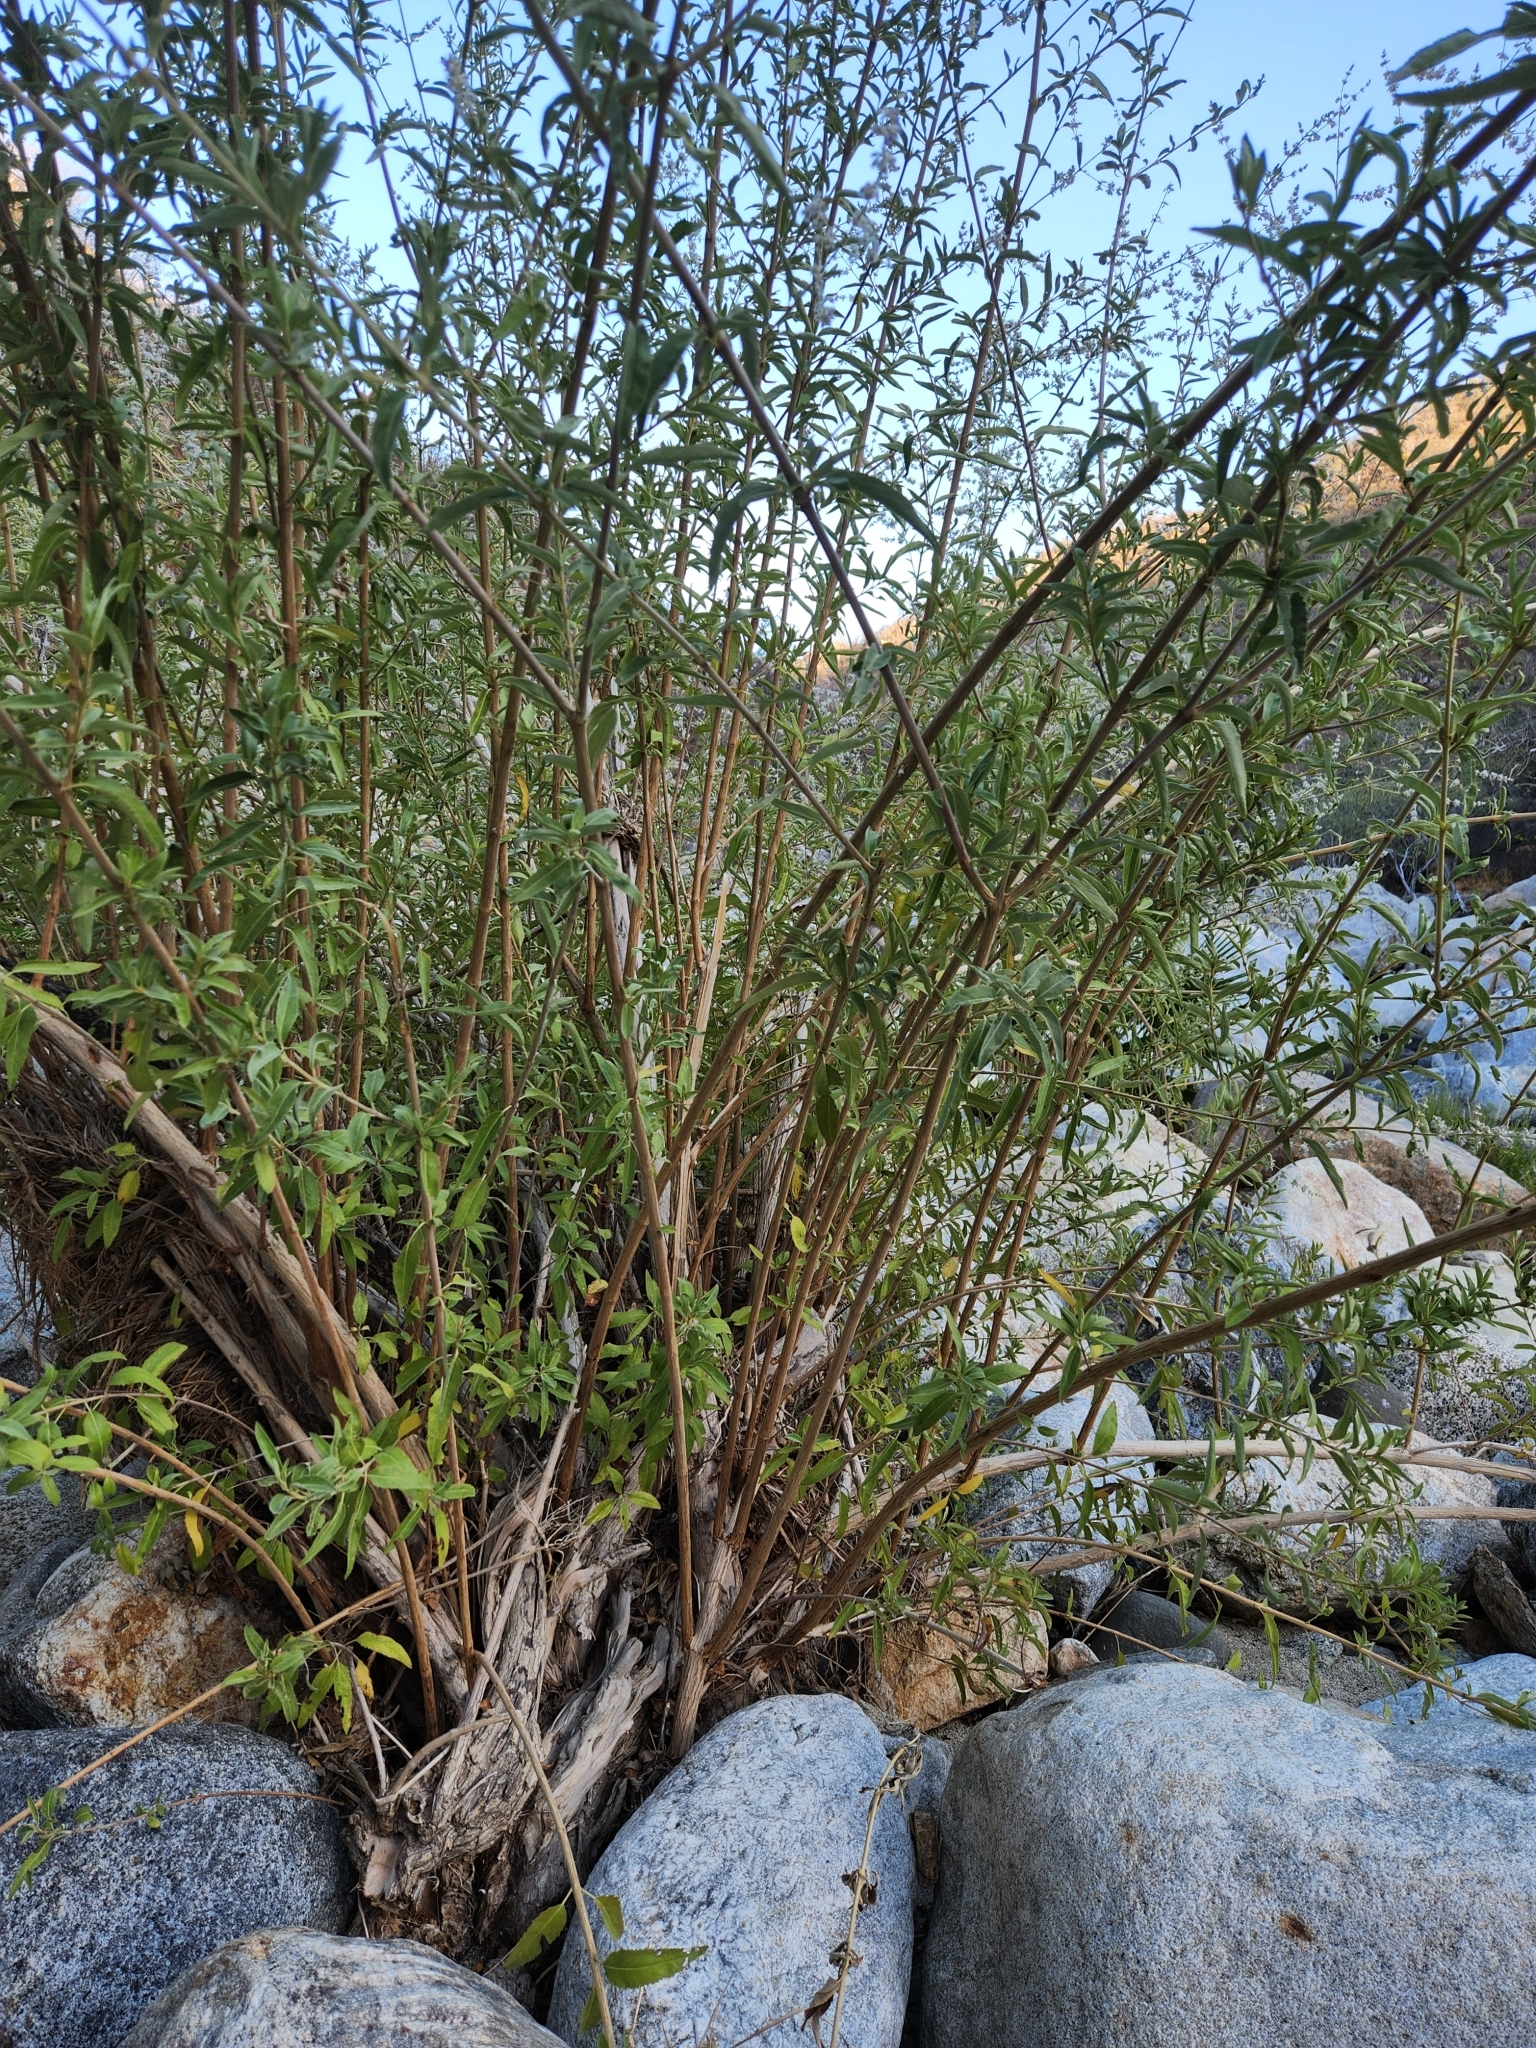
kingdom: Plantae
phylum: Tracheophyta
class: Magnoliopsida
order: Lamiales
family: Lamiaceae
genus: Condea
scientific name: Condea tephrodes
